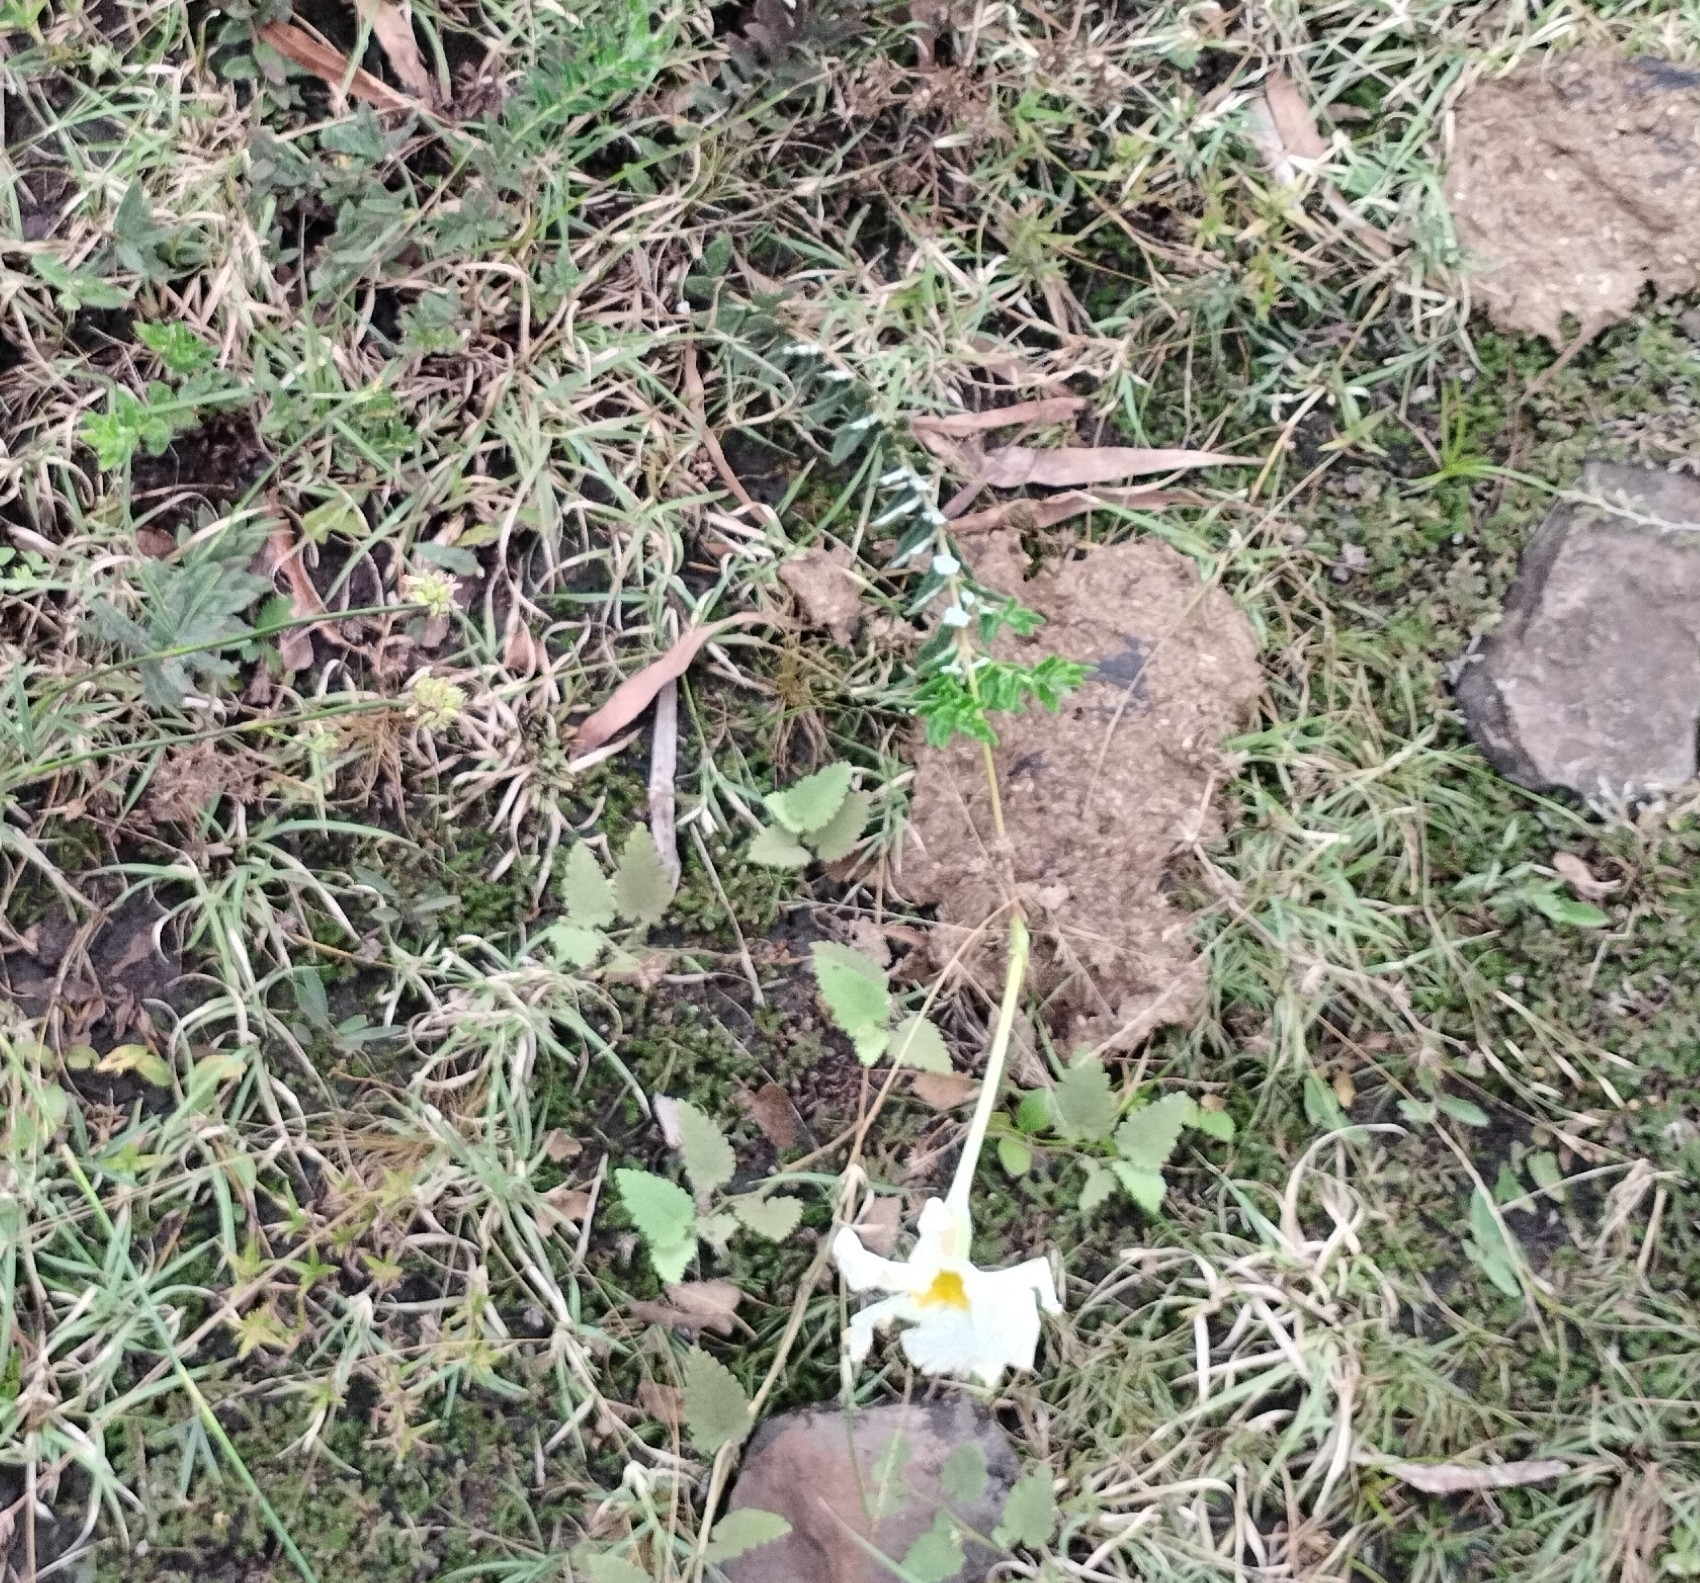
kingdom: Plantae
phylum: Tracheophyta
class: Magnoliopsida
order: Gentianales
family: Apocynaceae
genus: Mandevilla
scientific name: Mandevilla petraea
